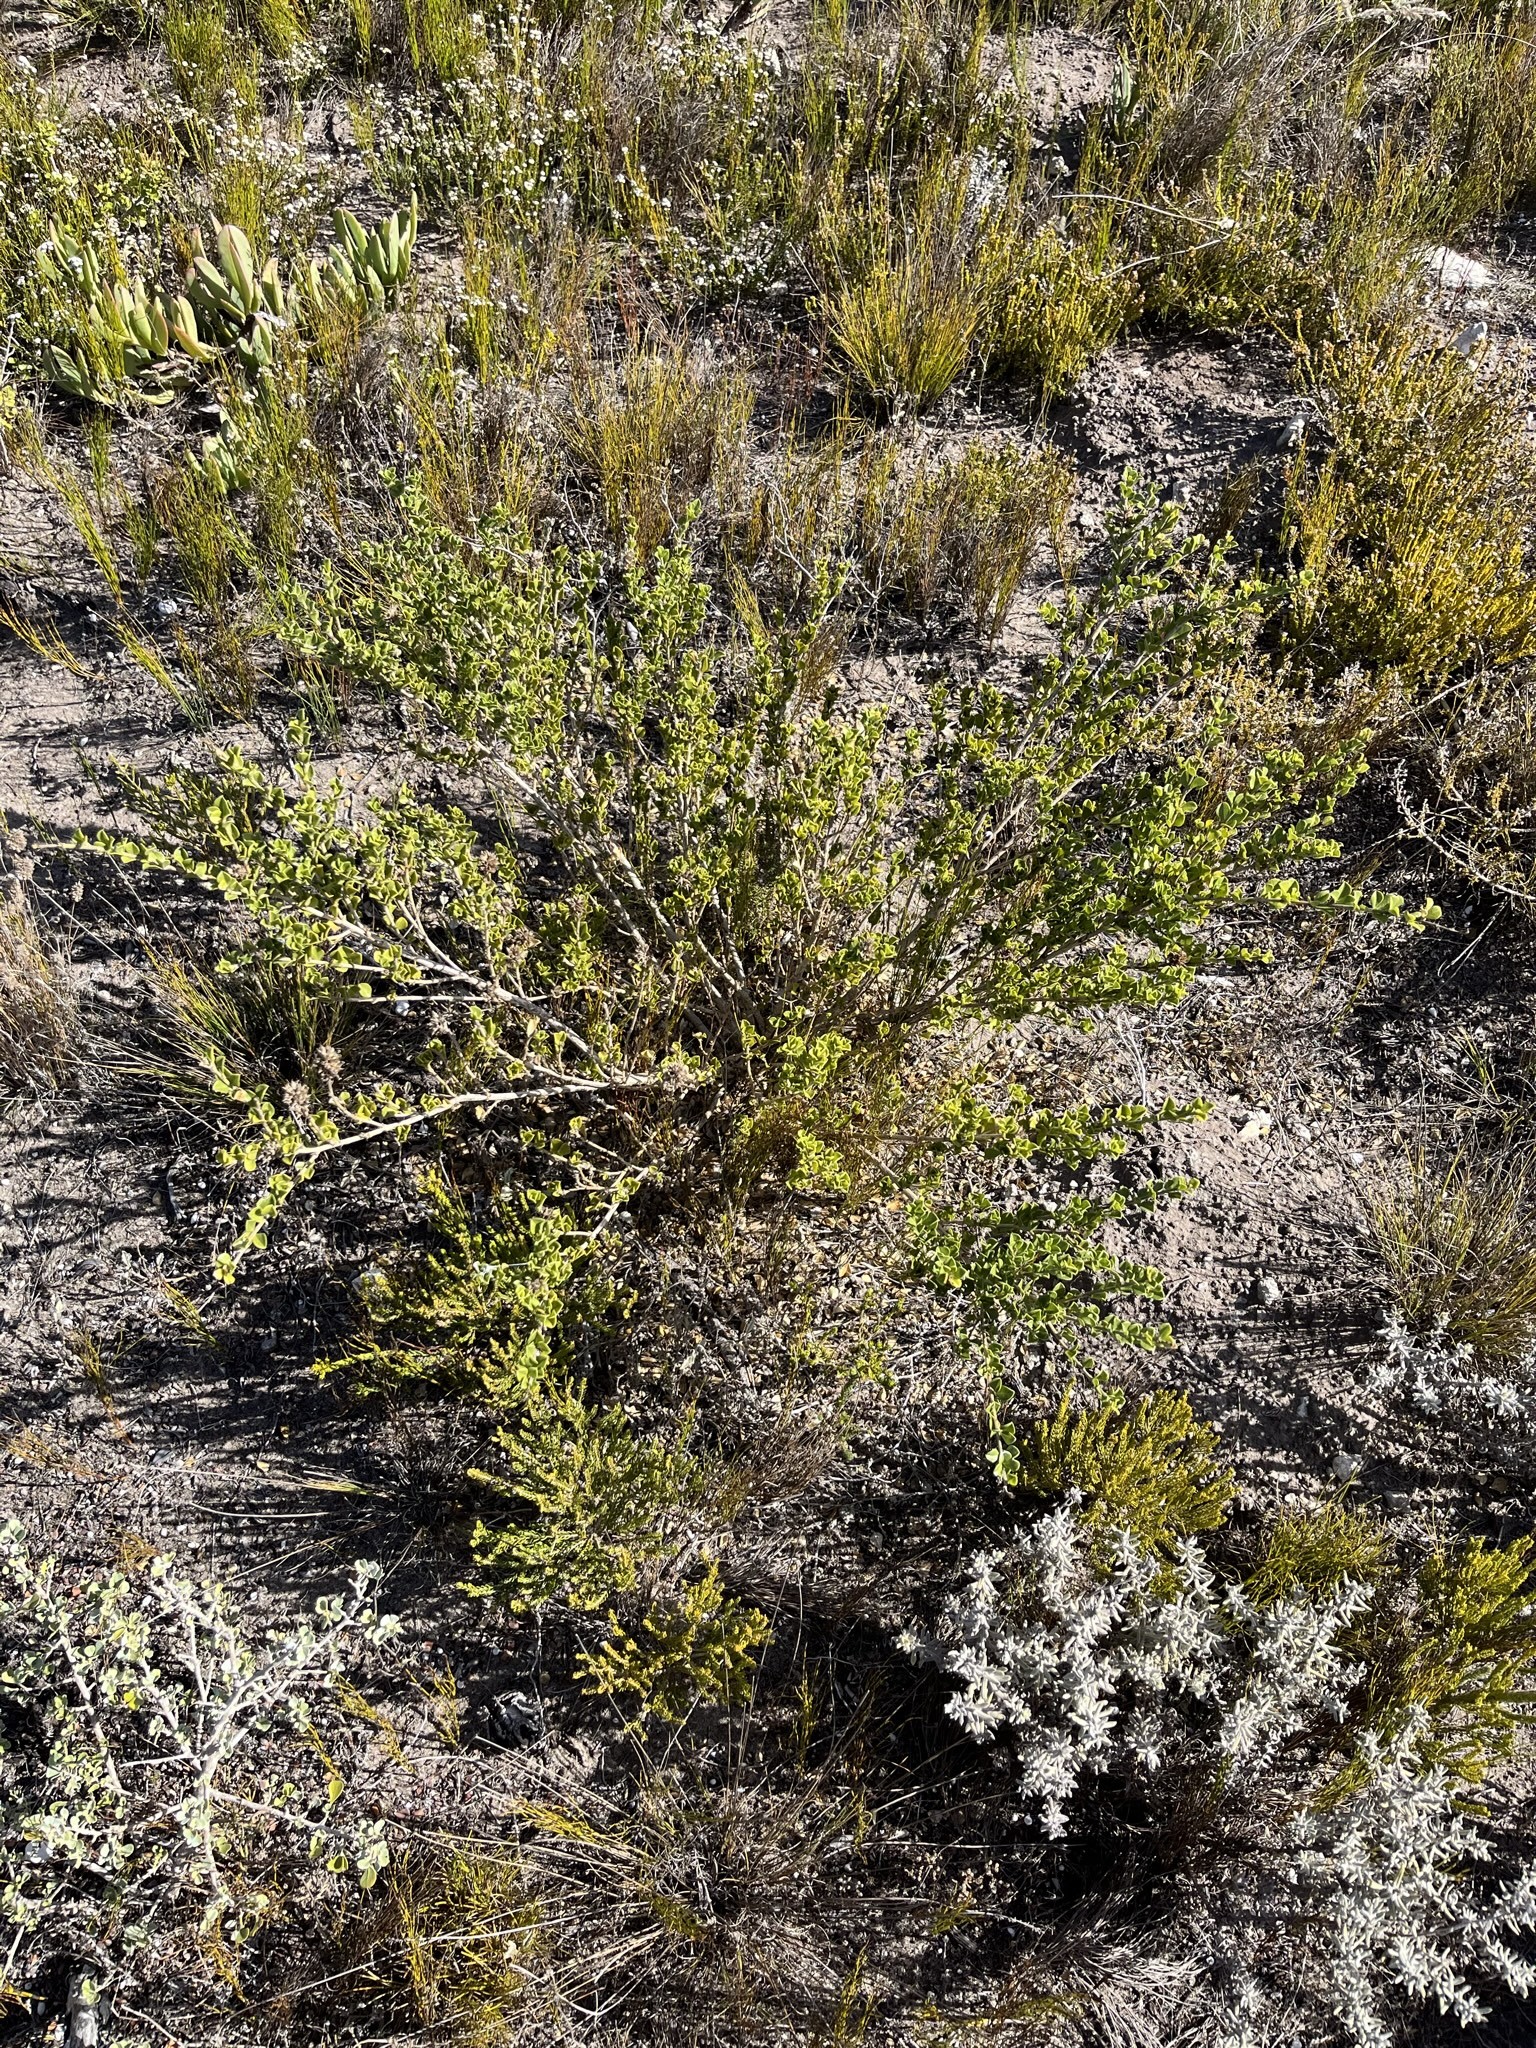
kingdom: Plantae
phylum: Tracheophyta
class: Magnoliopsida
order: Fabales
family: Fabaceae
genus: Psoralea
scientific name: Psoralea bracteolata
